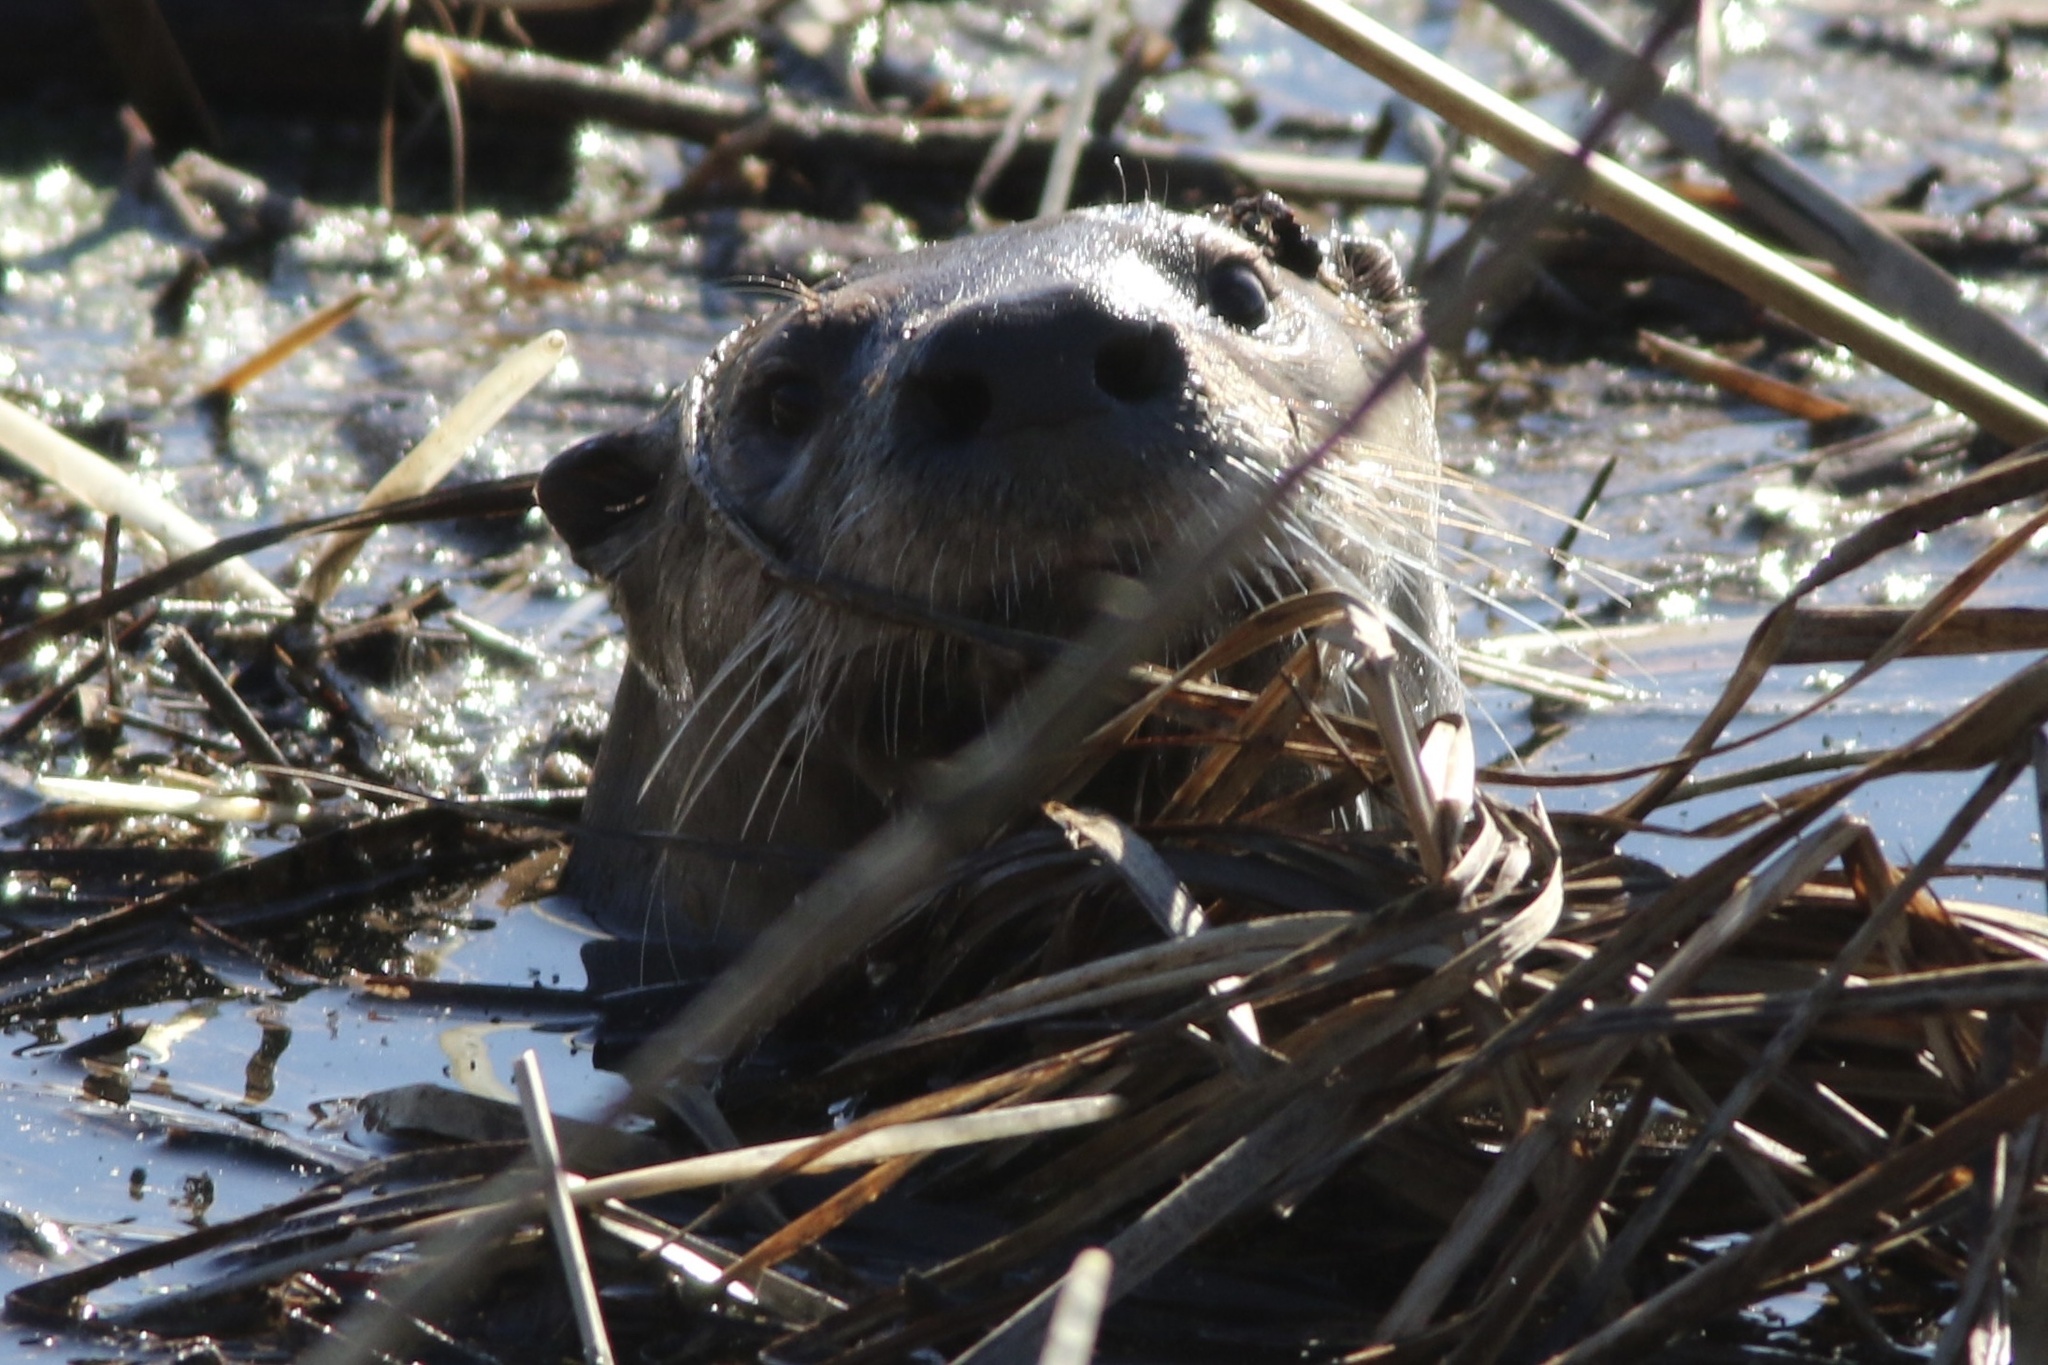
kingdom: Animalia
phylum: Chordata
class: Mammalia
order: Carnivora
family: Mustelidae
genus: Lontra
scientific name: Lontra canadensis
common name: North american river otter
